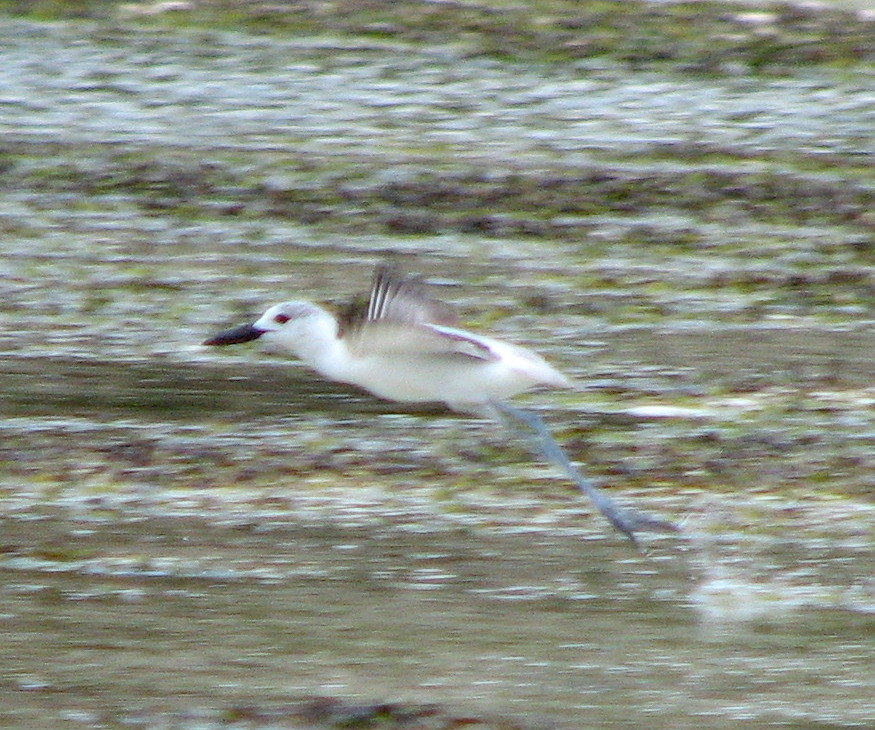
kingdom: Animalia
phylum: Chordata
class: Aves
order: Charadriiformes
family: Dromadidae
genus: Dromas
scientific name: Dromas ardeola
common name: Crab-plover
